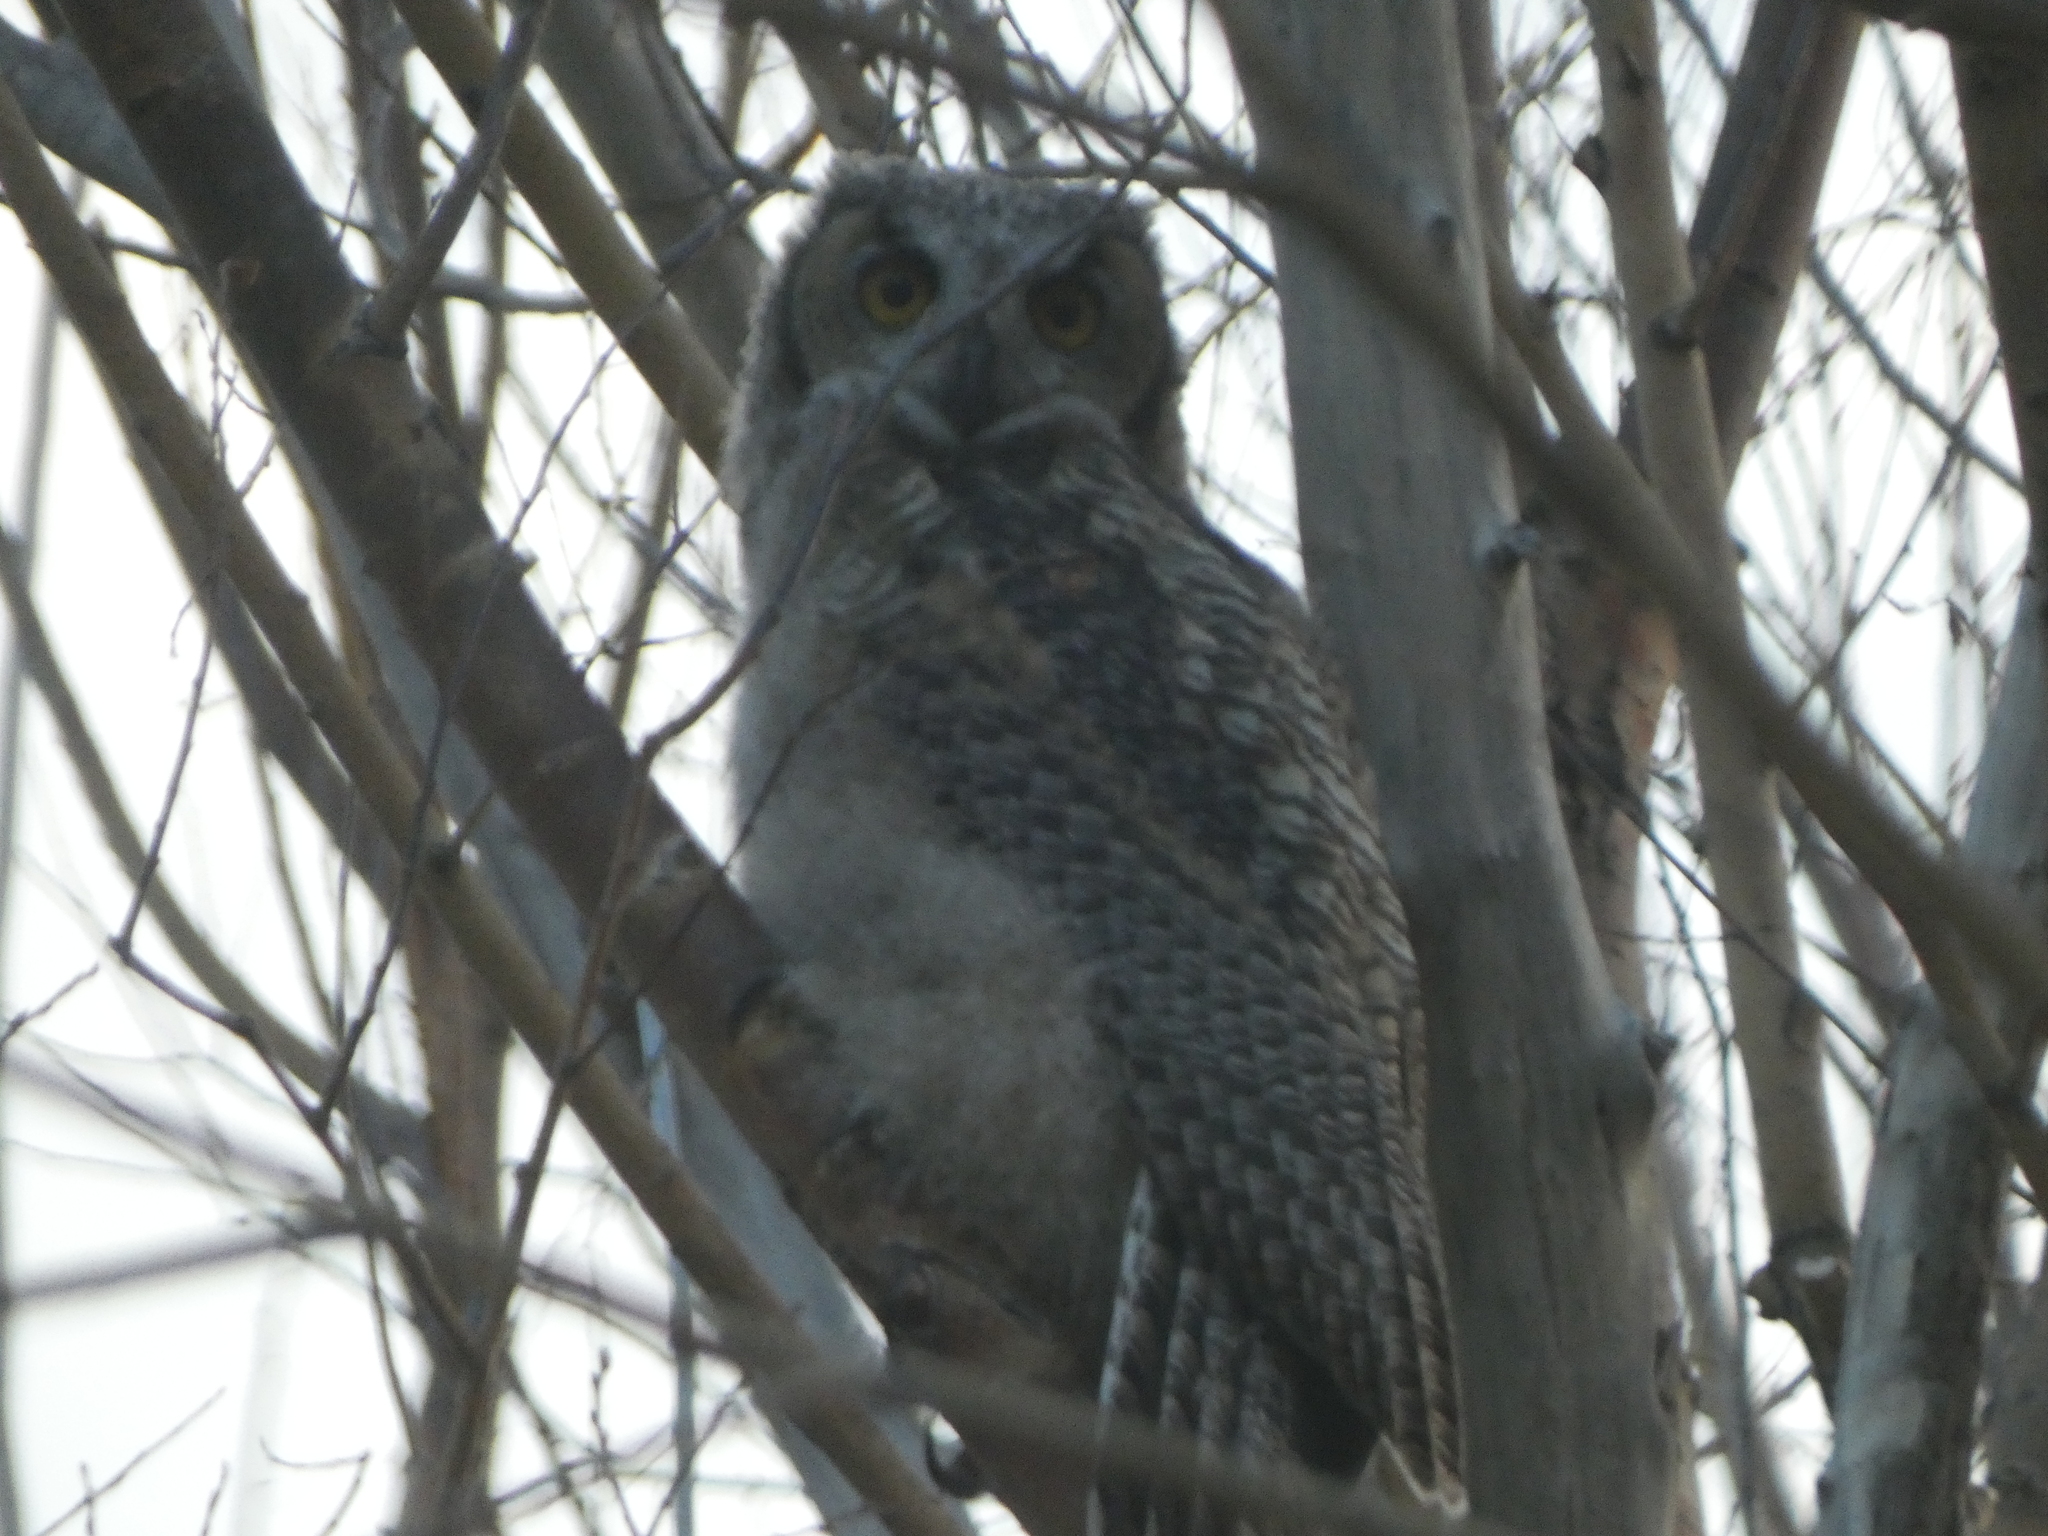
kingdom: Animalia
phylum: Chordata
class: Aves
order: Strigiformes
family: Strigidae
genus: Bubo
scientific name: Bubo virginianus
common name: Great horned owl
